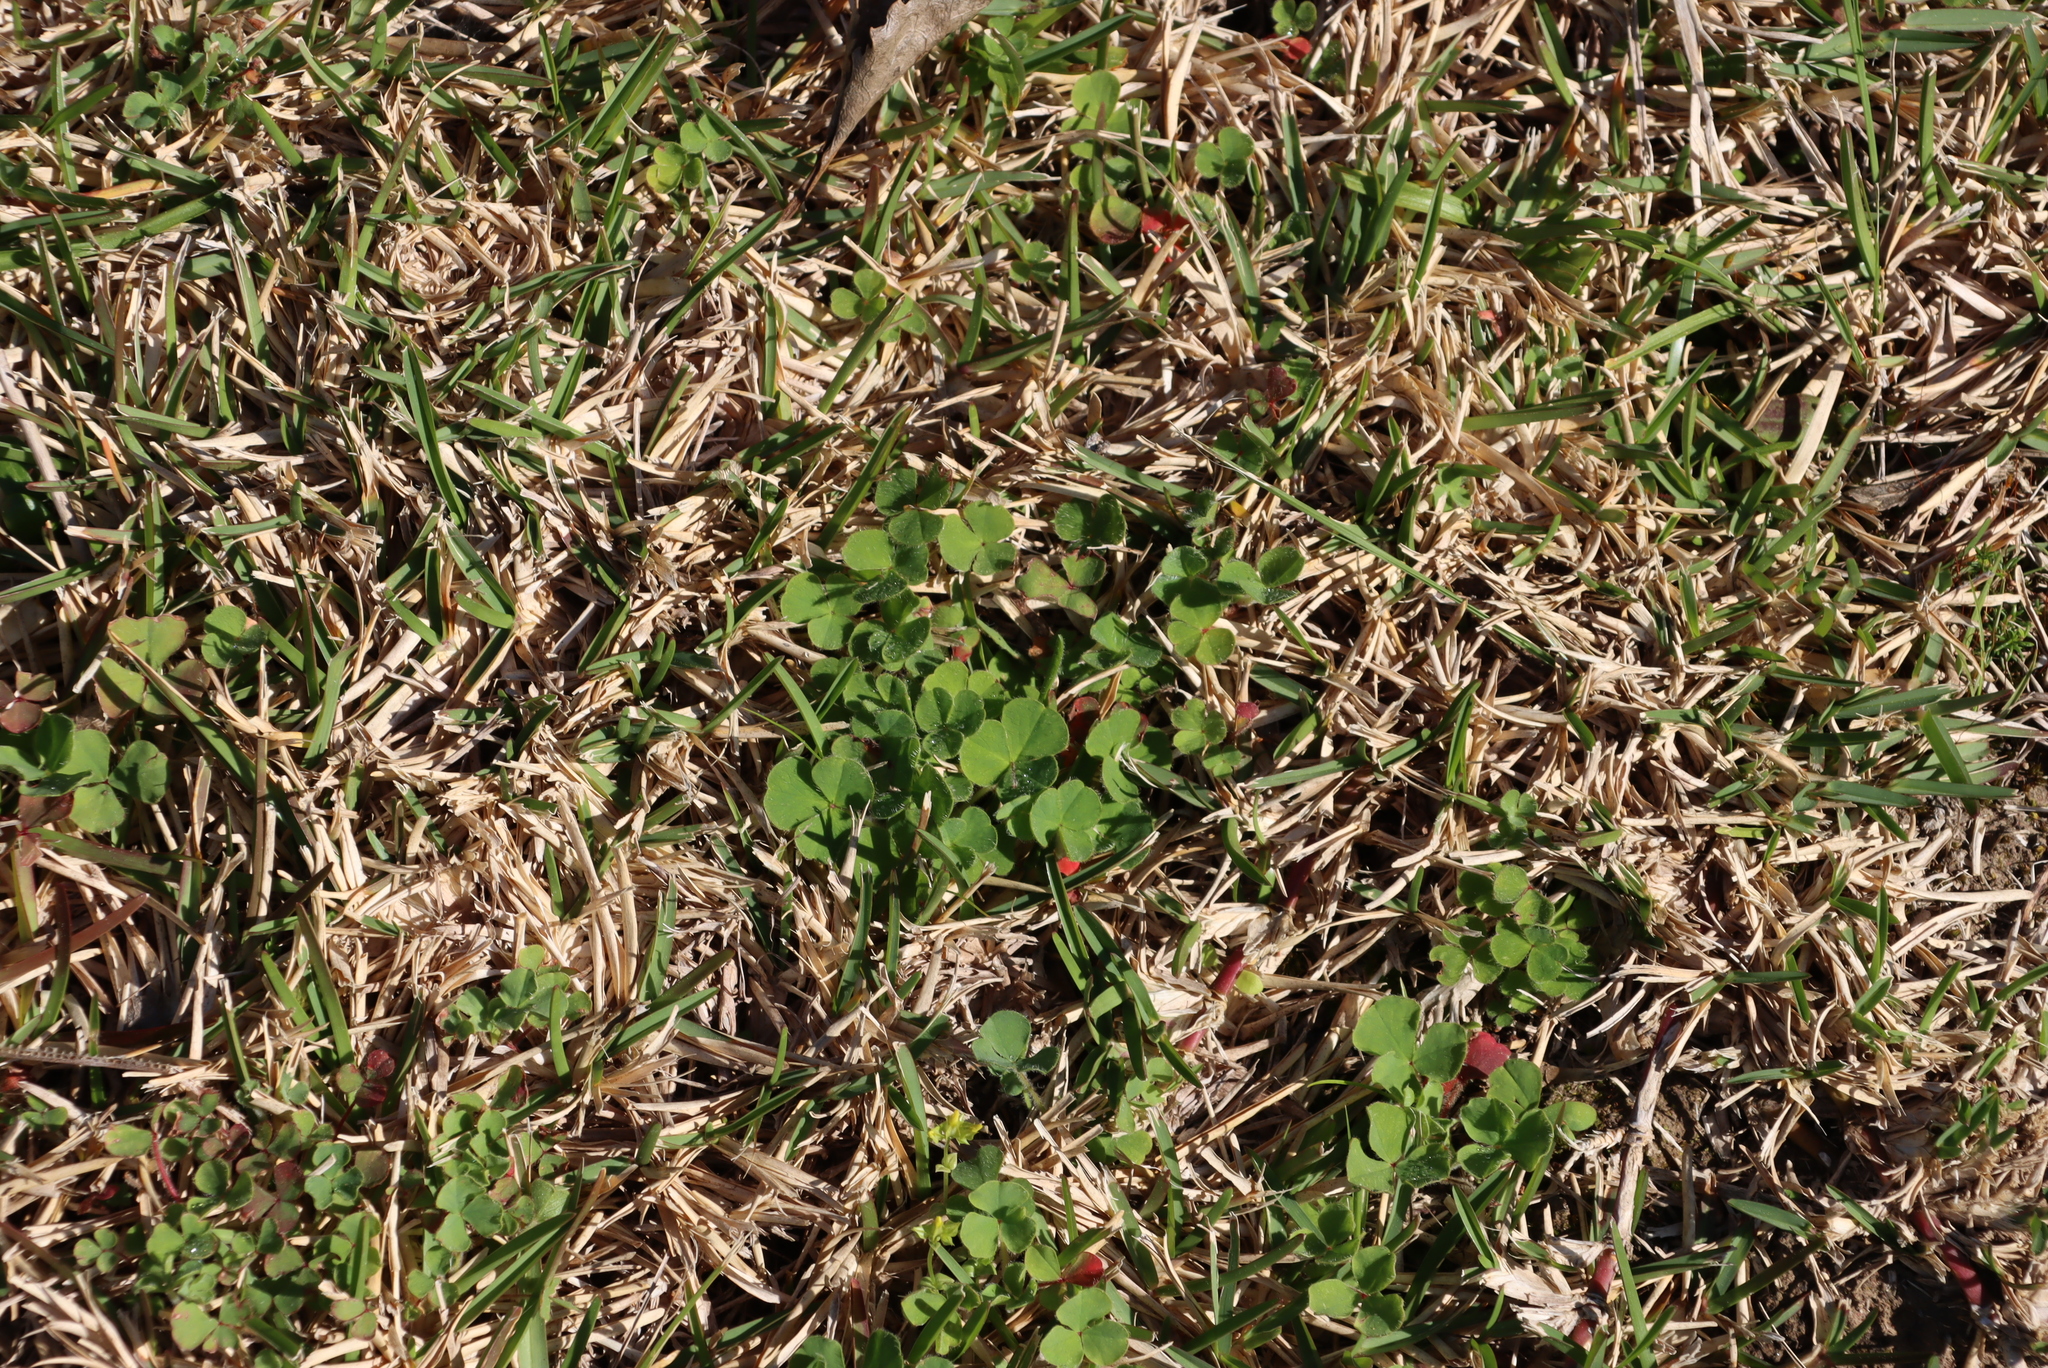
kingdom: Plantae
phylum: Tracheophyta
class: Magnoliopsida
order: Fabales
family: Fabaceae
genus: Medicago
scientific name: Medicago polymorpha
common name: Burclover
